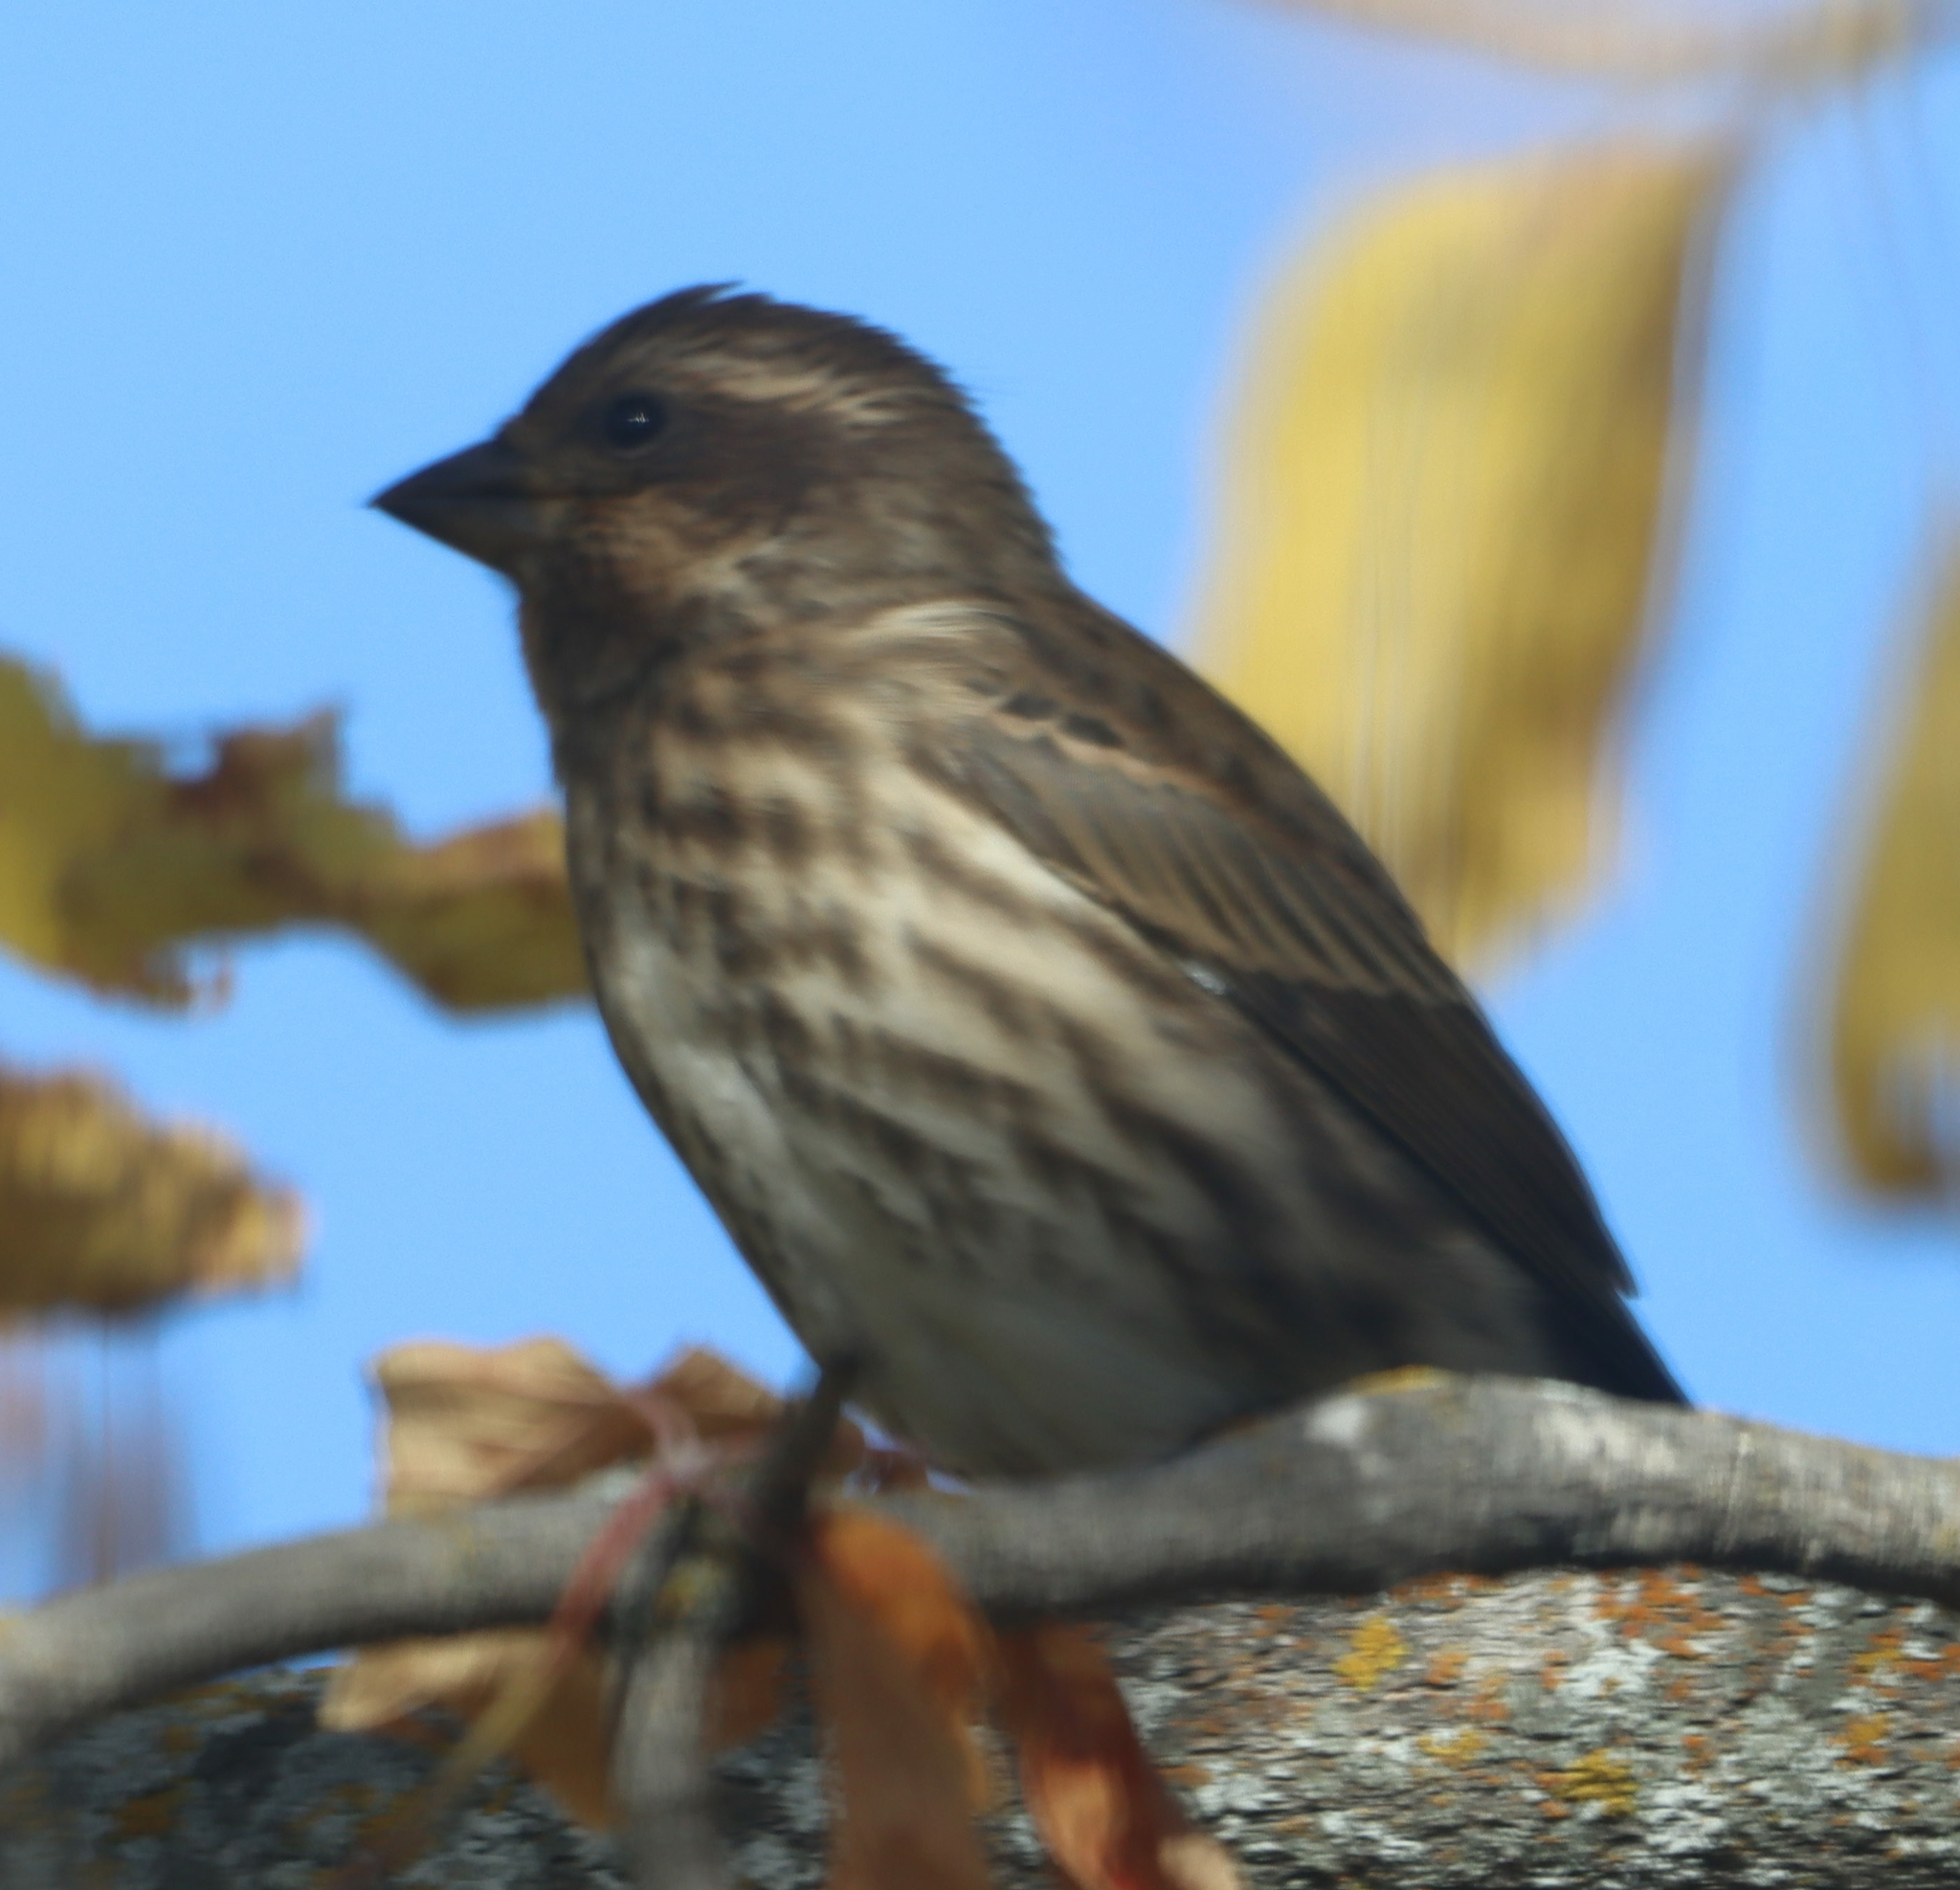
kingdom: Animalia
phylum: Chordata
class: Aves
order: Passeriformes
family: Fringillidae
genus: Haemorhous
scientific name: Haemorhous purpureus
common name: Purple finch
